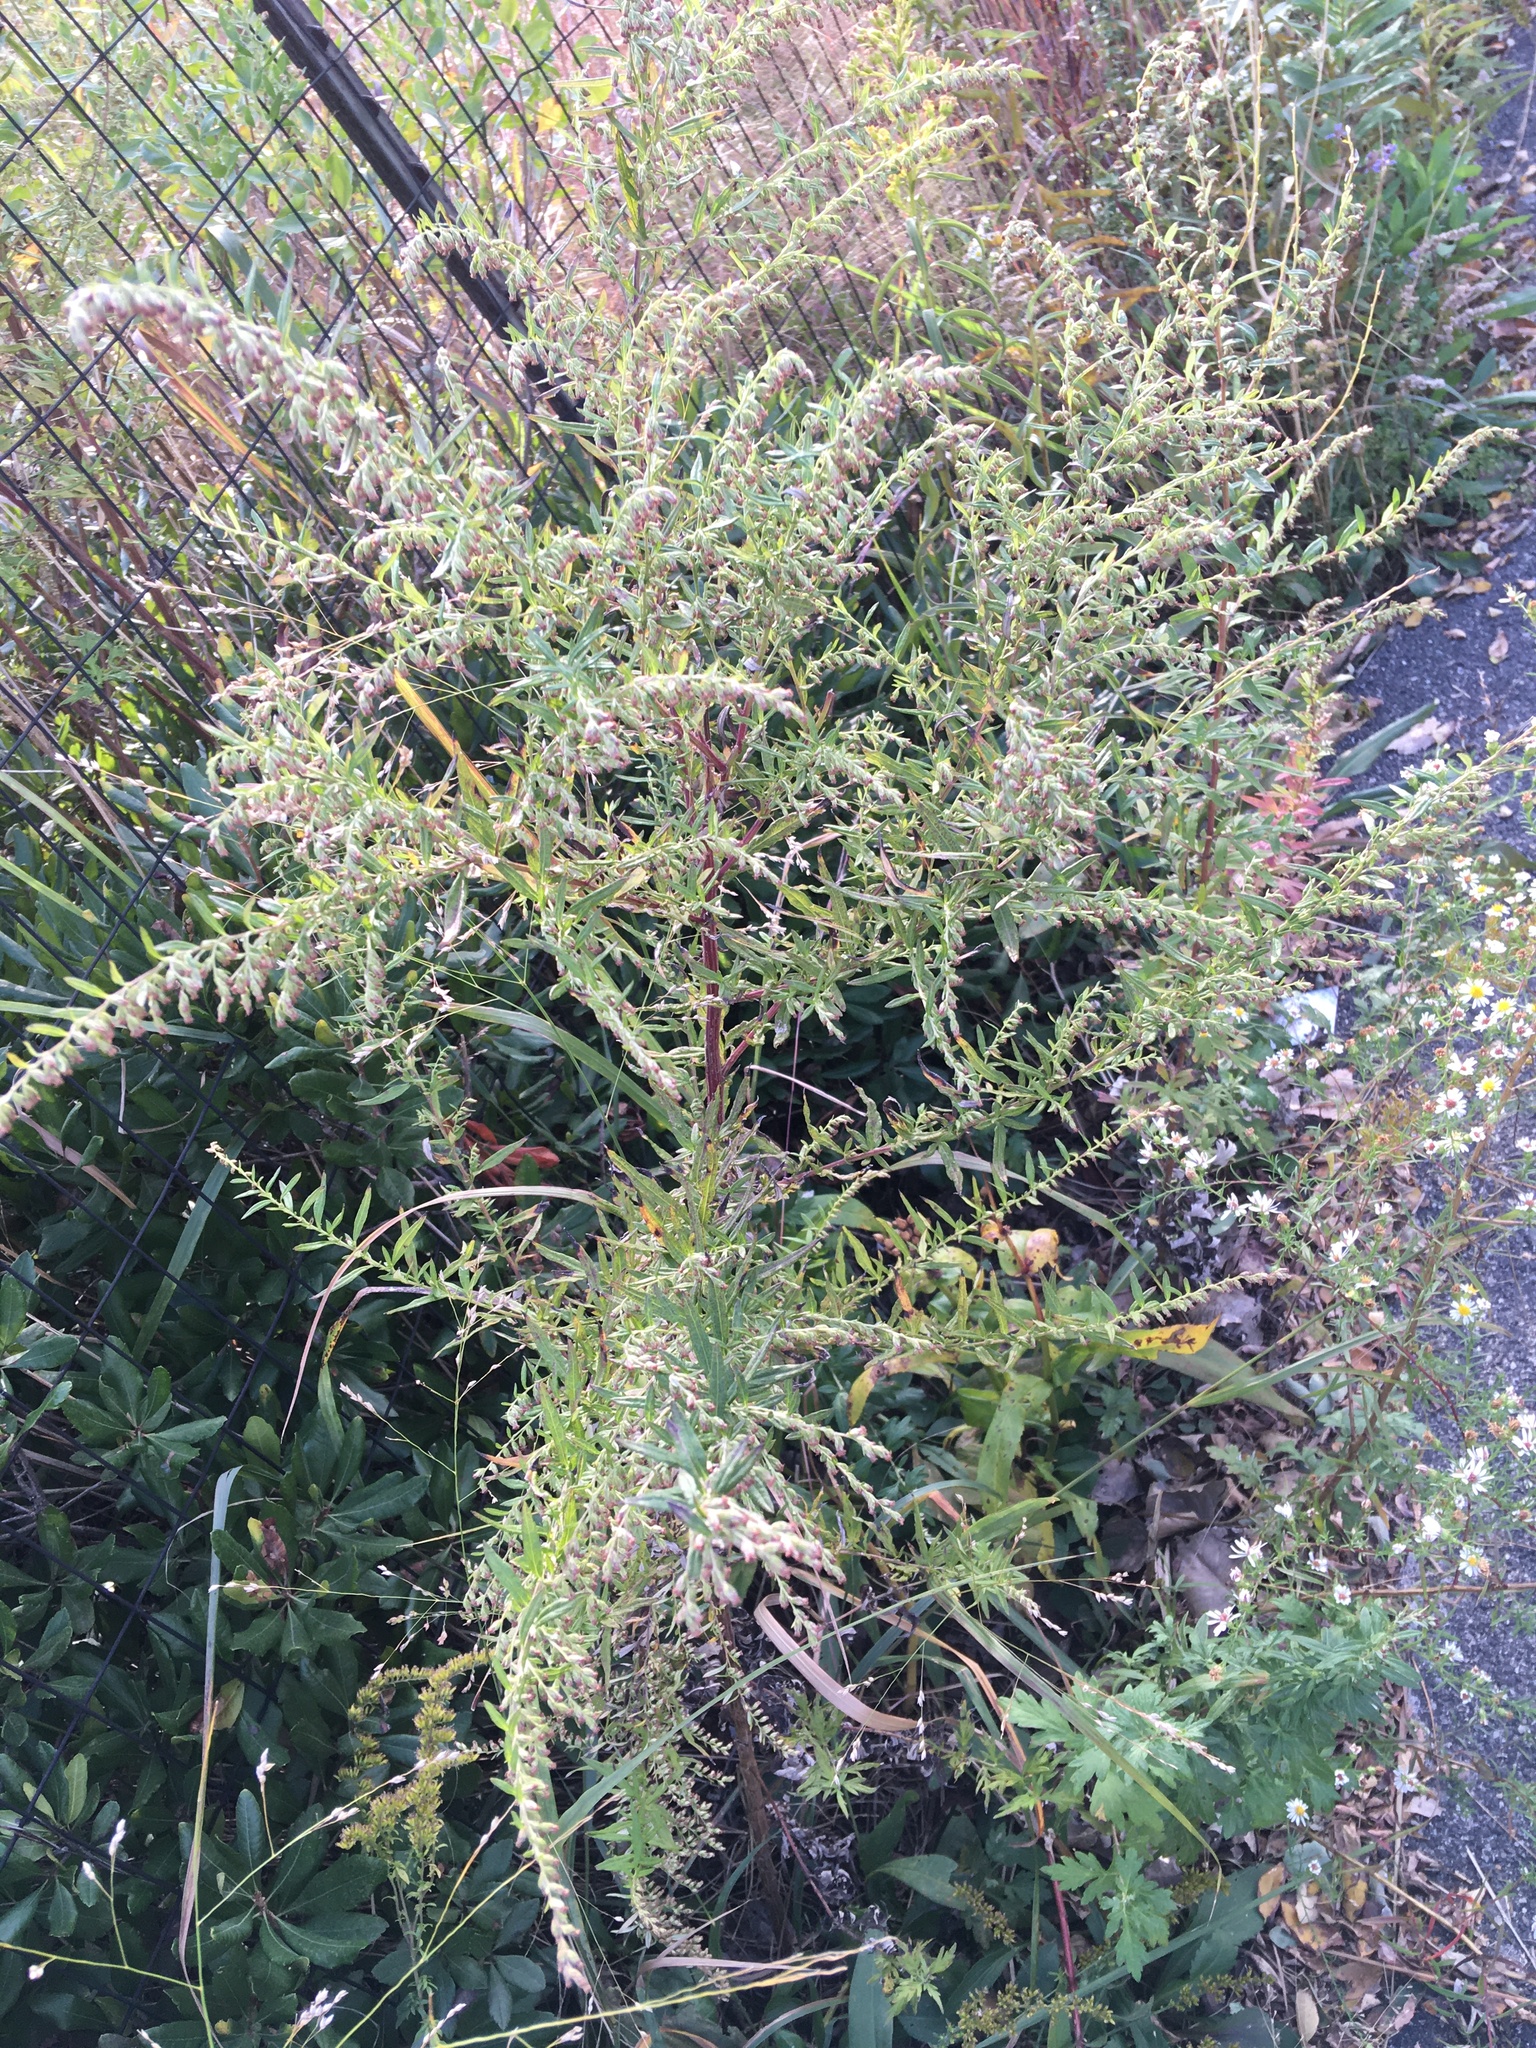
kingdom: Plantae
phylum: Tracheophyta
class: Magnoliopsida
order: Asterales
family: Asteraceae
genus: Artemisia
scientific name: Artemisia vulgaris
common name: Mugwort
